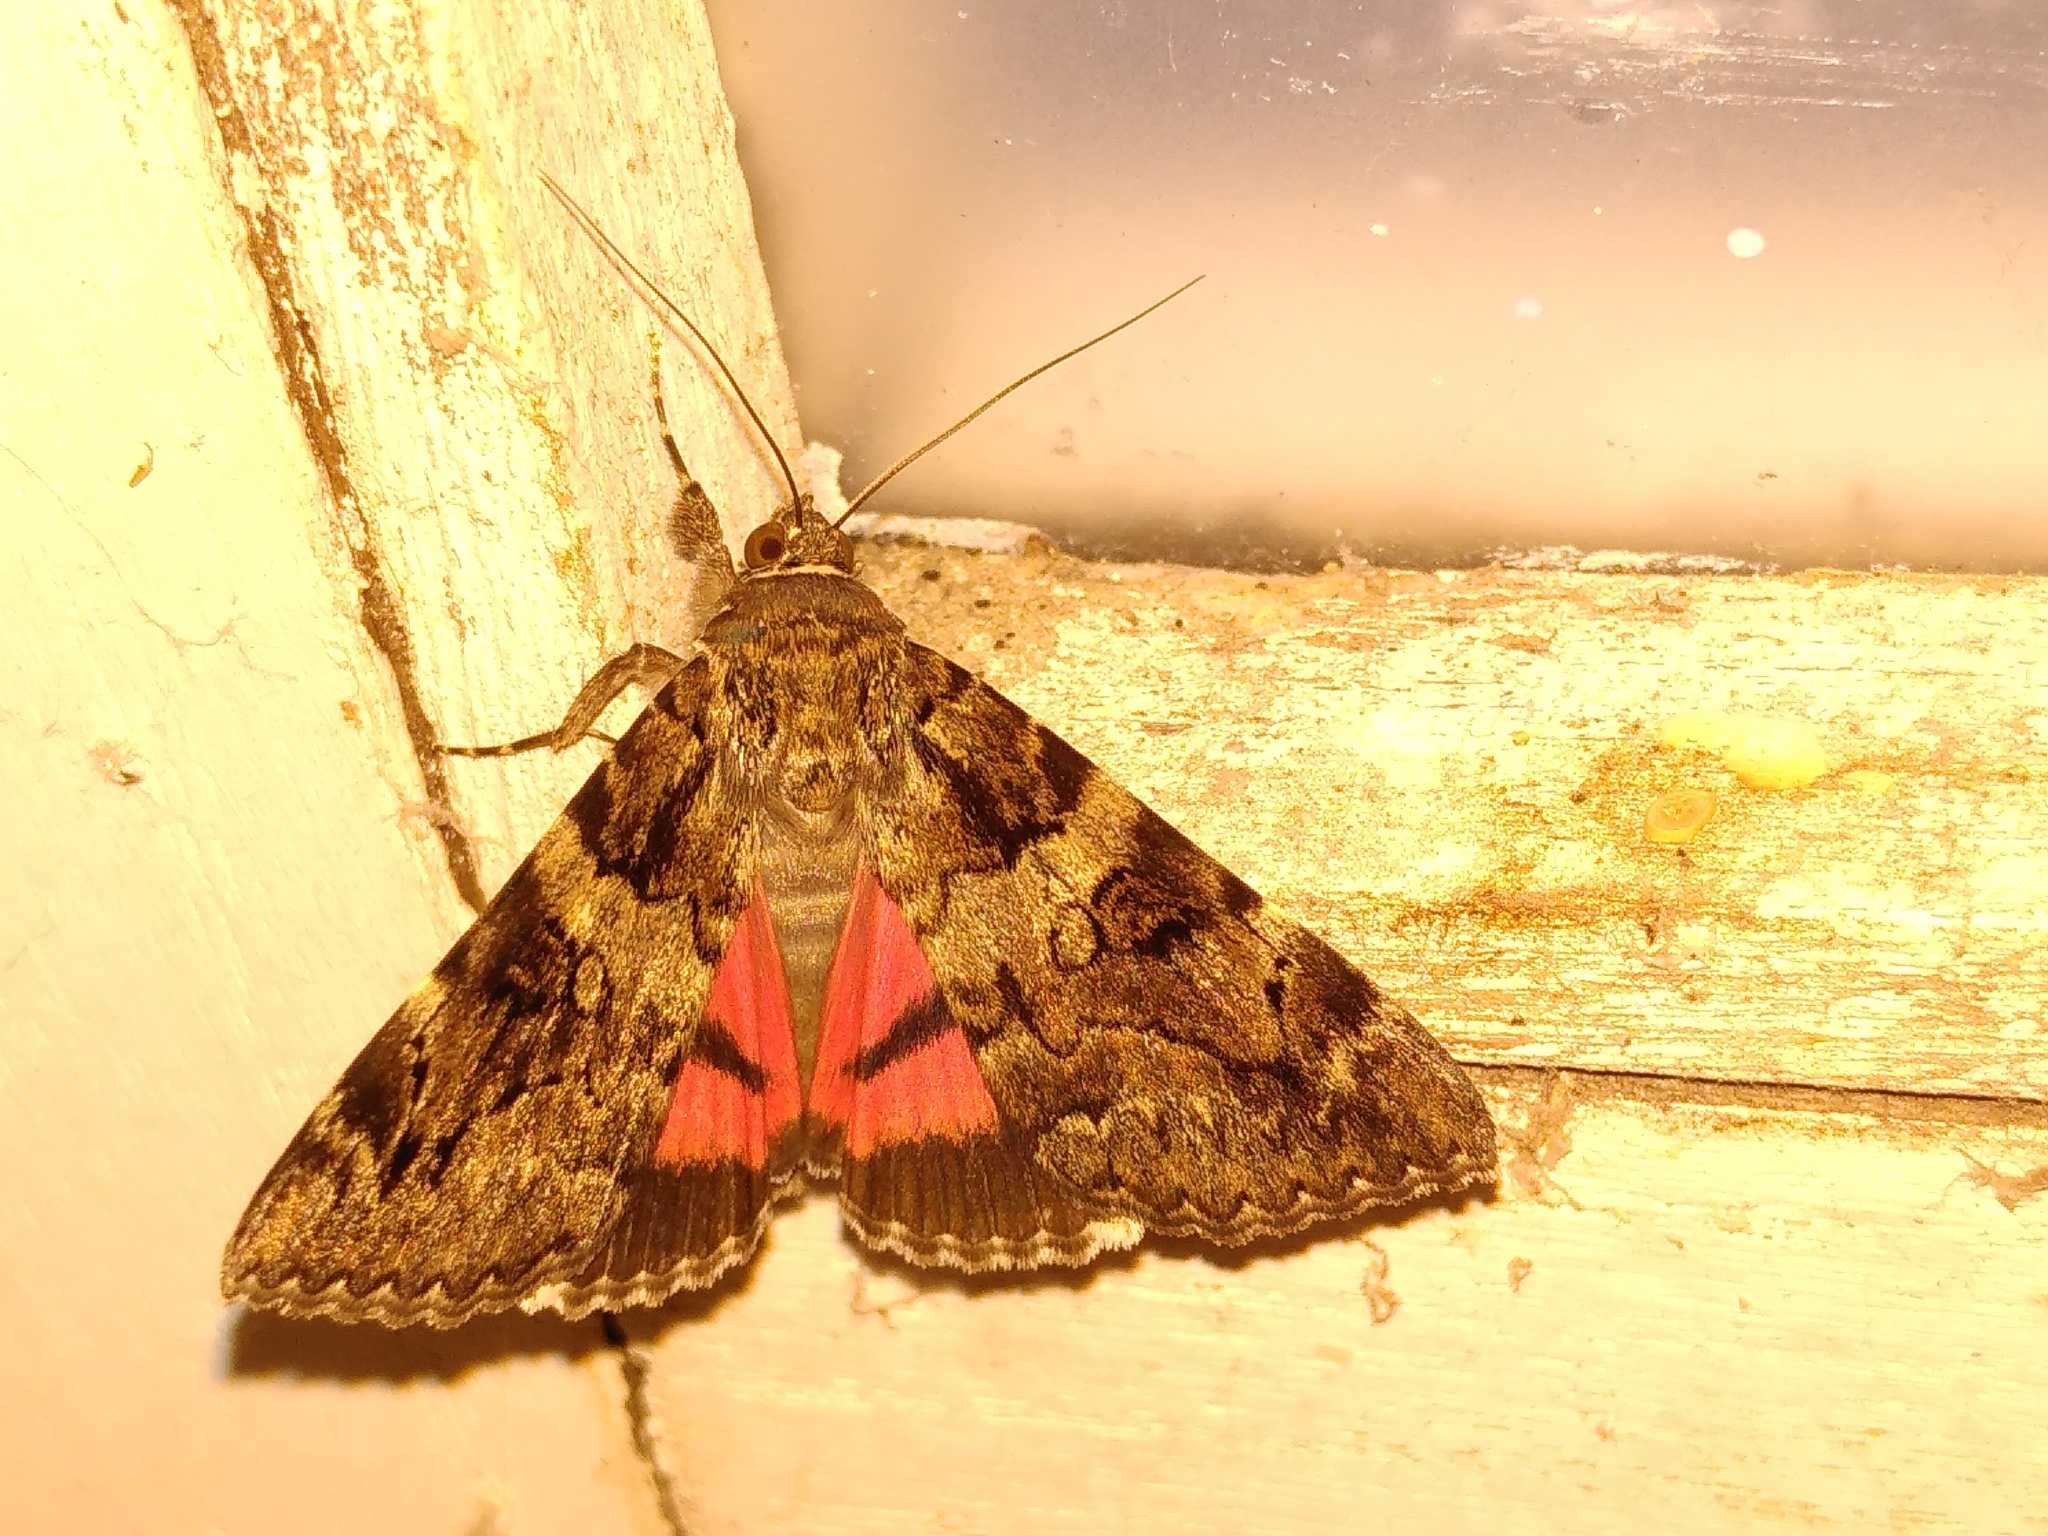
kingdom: Animalia
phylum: Arthropoda
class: Insecta
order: Lepidoptera
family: Erebidae
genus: Catocala
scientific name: Catocala coniuncta
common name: Minsmere crimson underwing
